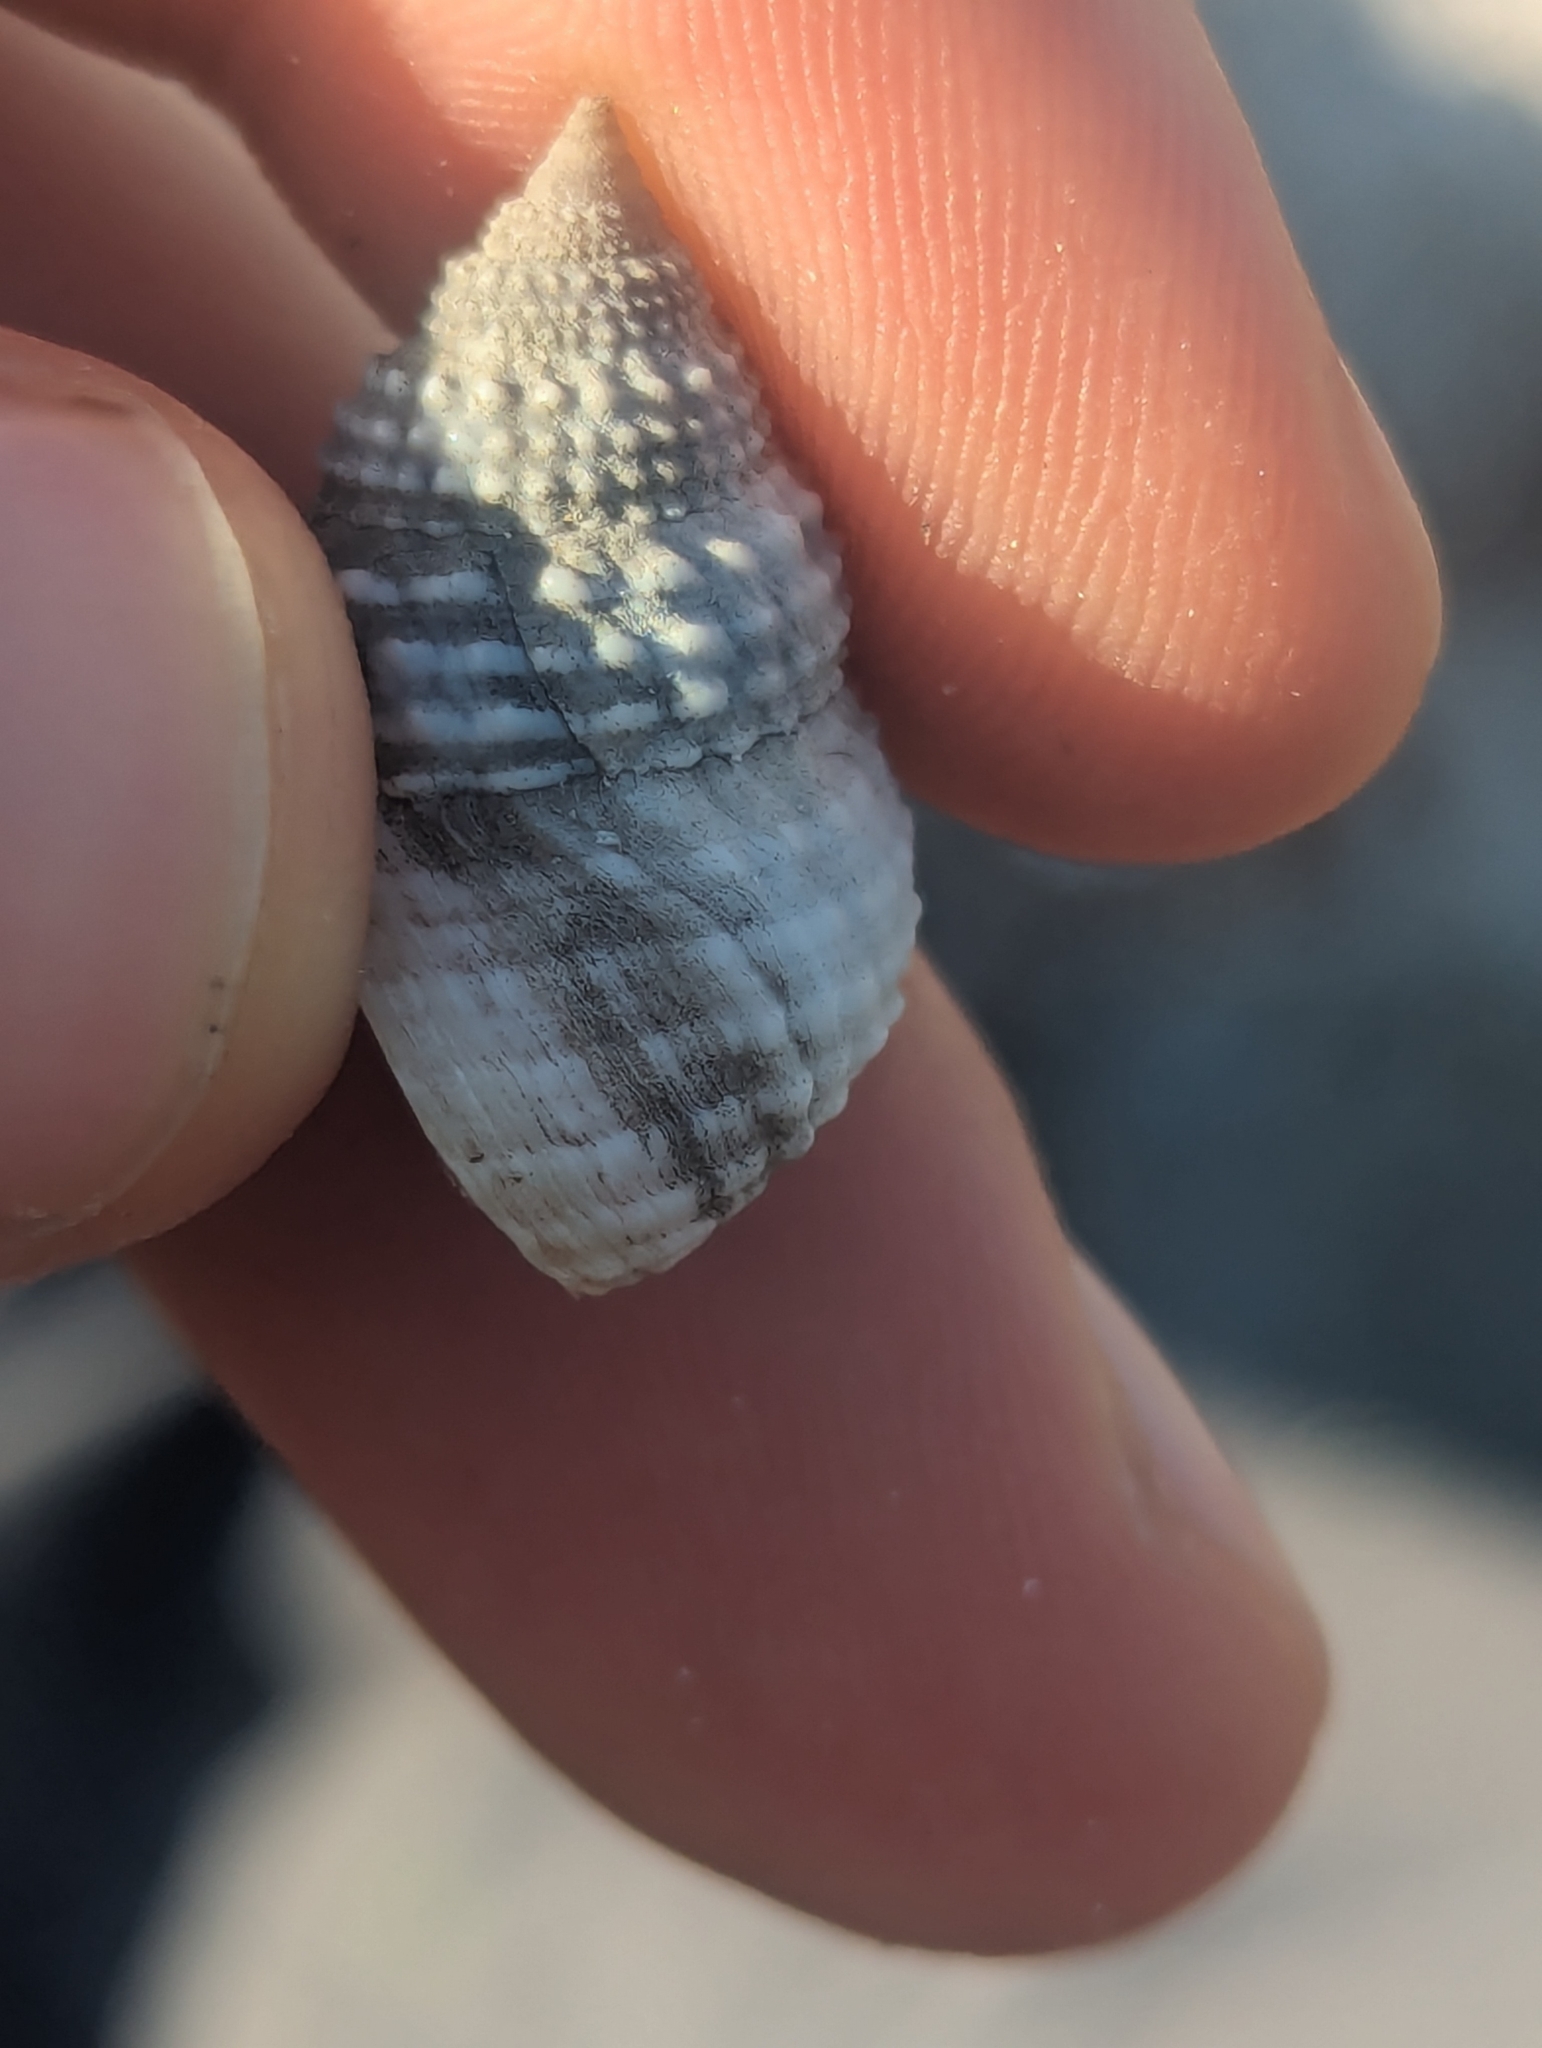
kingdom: Animalia
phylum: Mollusca
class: Gastropoda
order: Littorinimorpha
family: Littorinidae
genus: Cenchritis
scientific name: Cenchritis muricatus
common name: Beaded periwinkle
